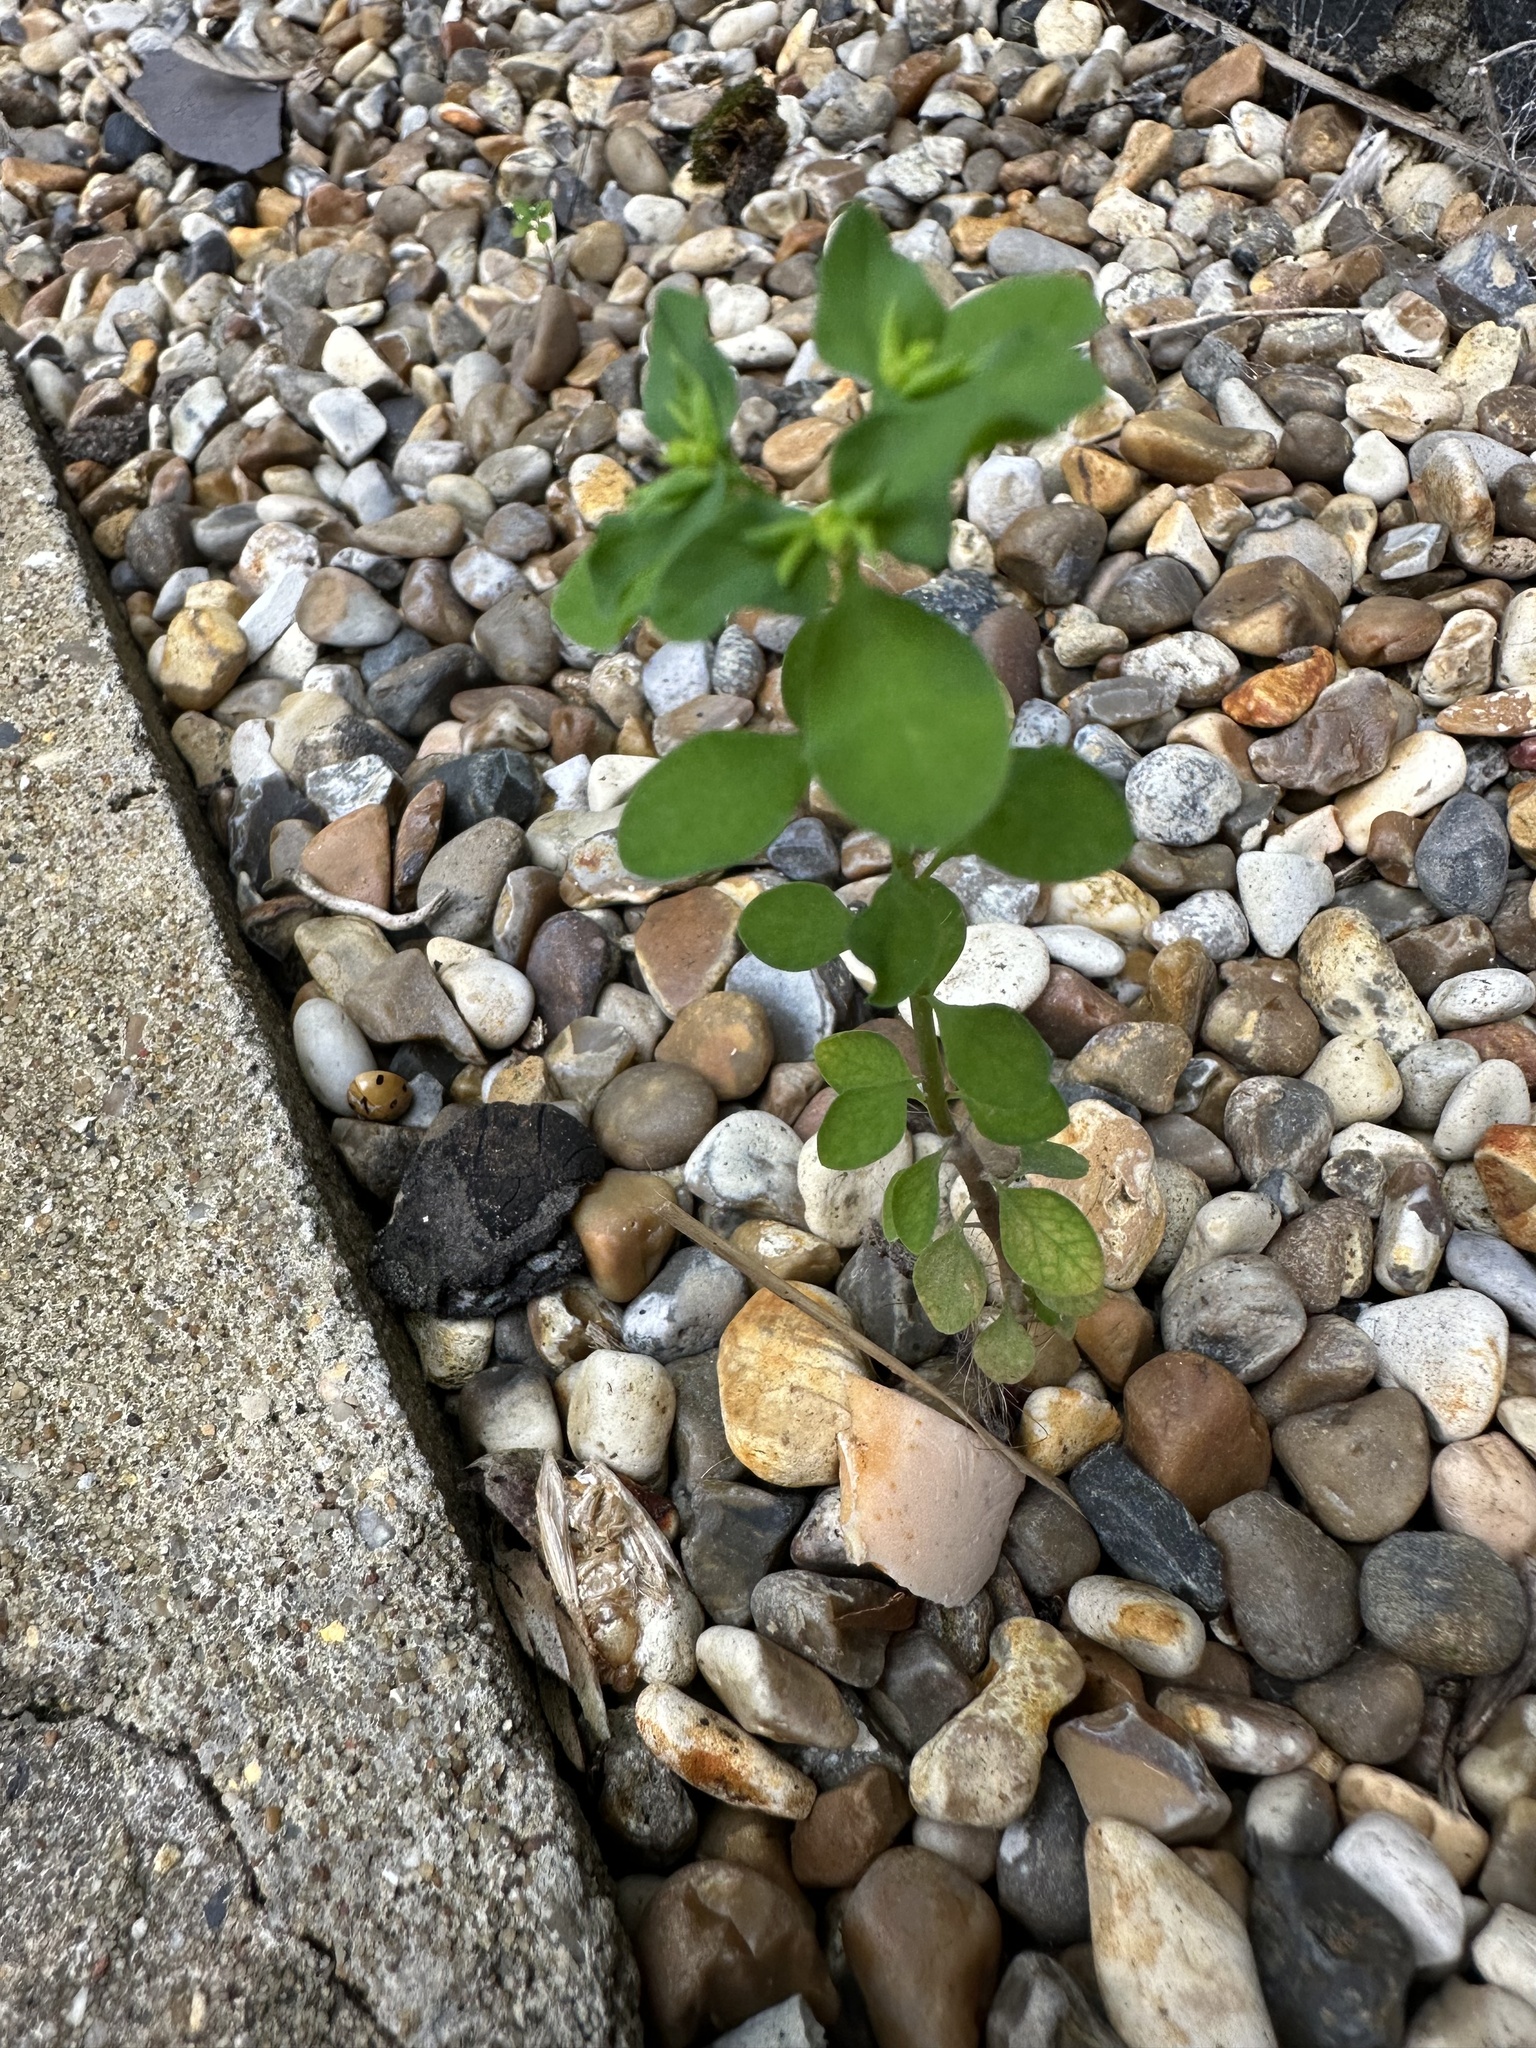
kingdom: Plantae
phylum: Tracheophyta
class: Magnoliopsida
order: Malpighiales
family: Euphorbiaceae
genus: Euphorbia
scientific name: Euphorbia peplus
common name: Petty spurge
